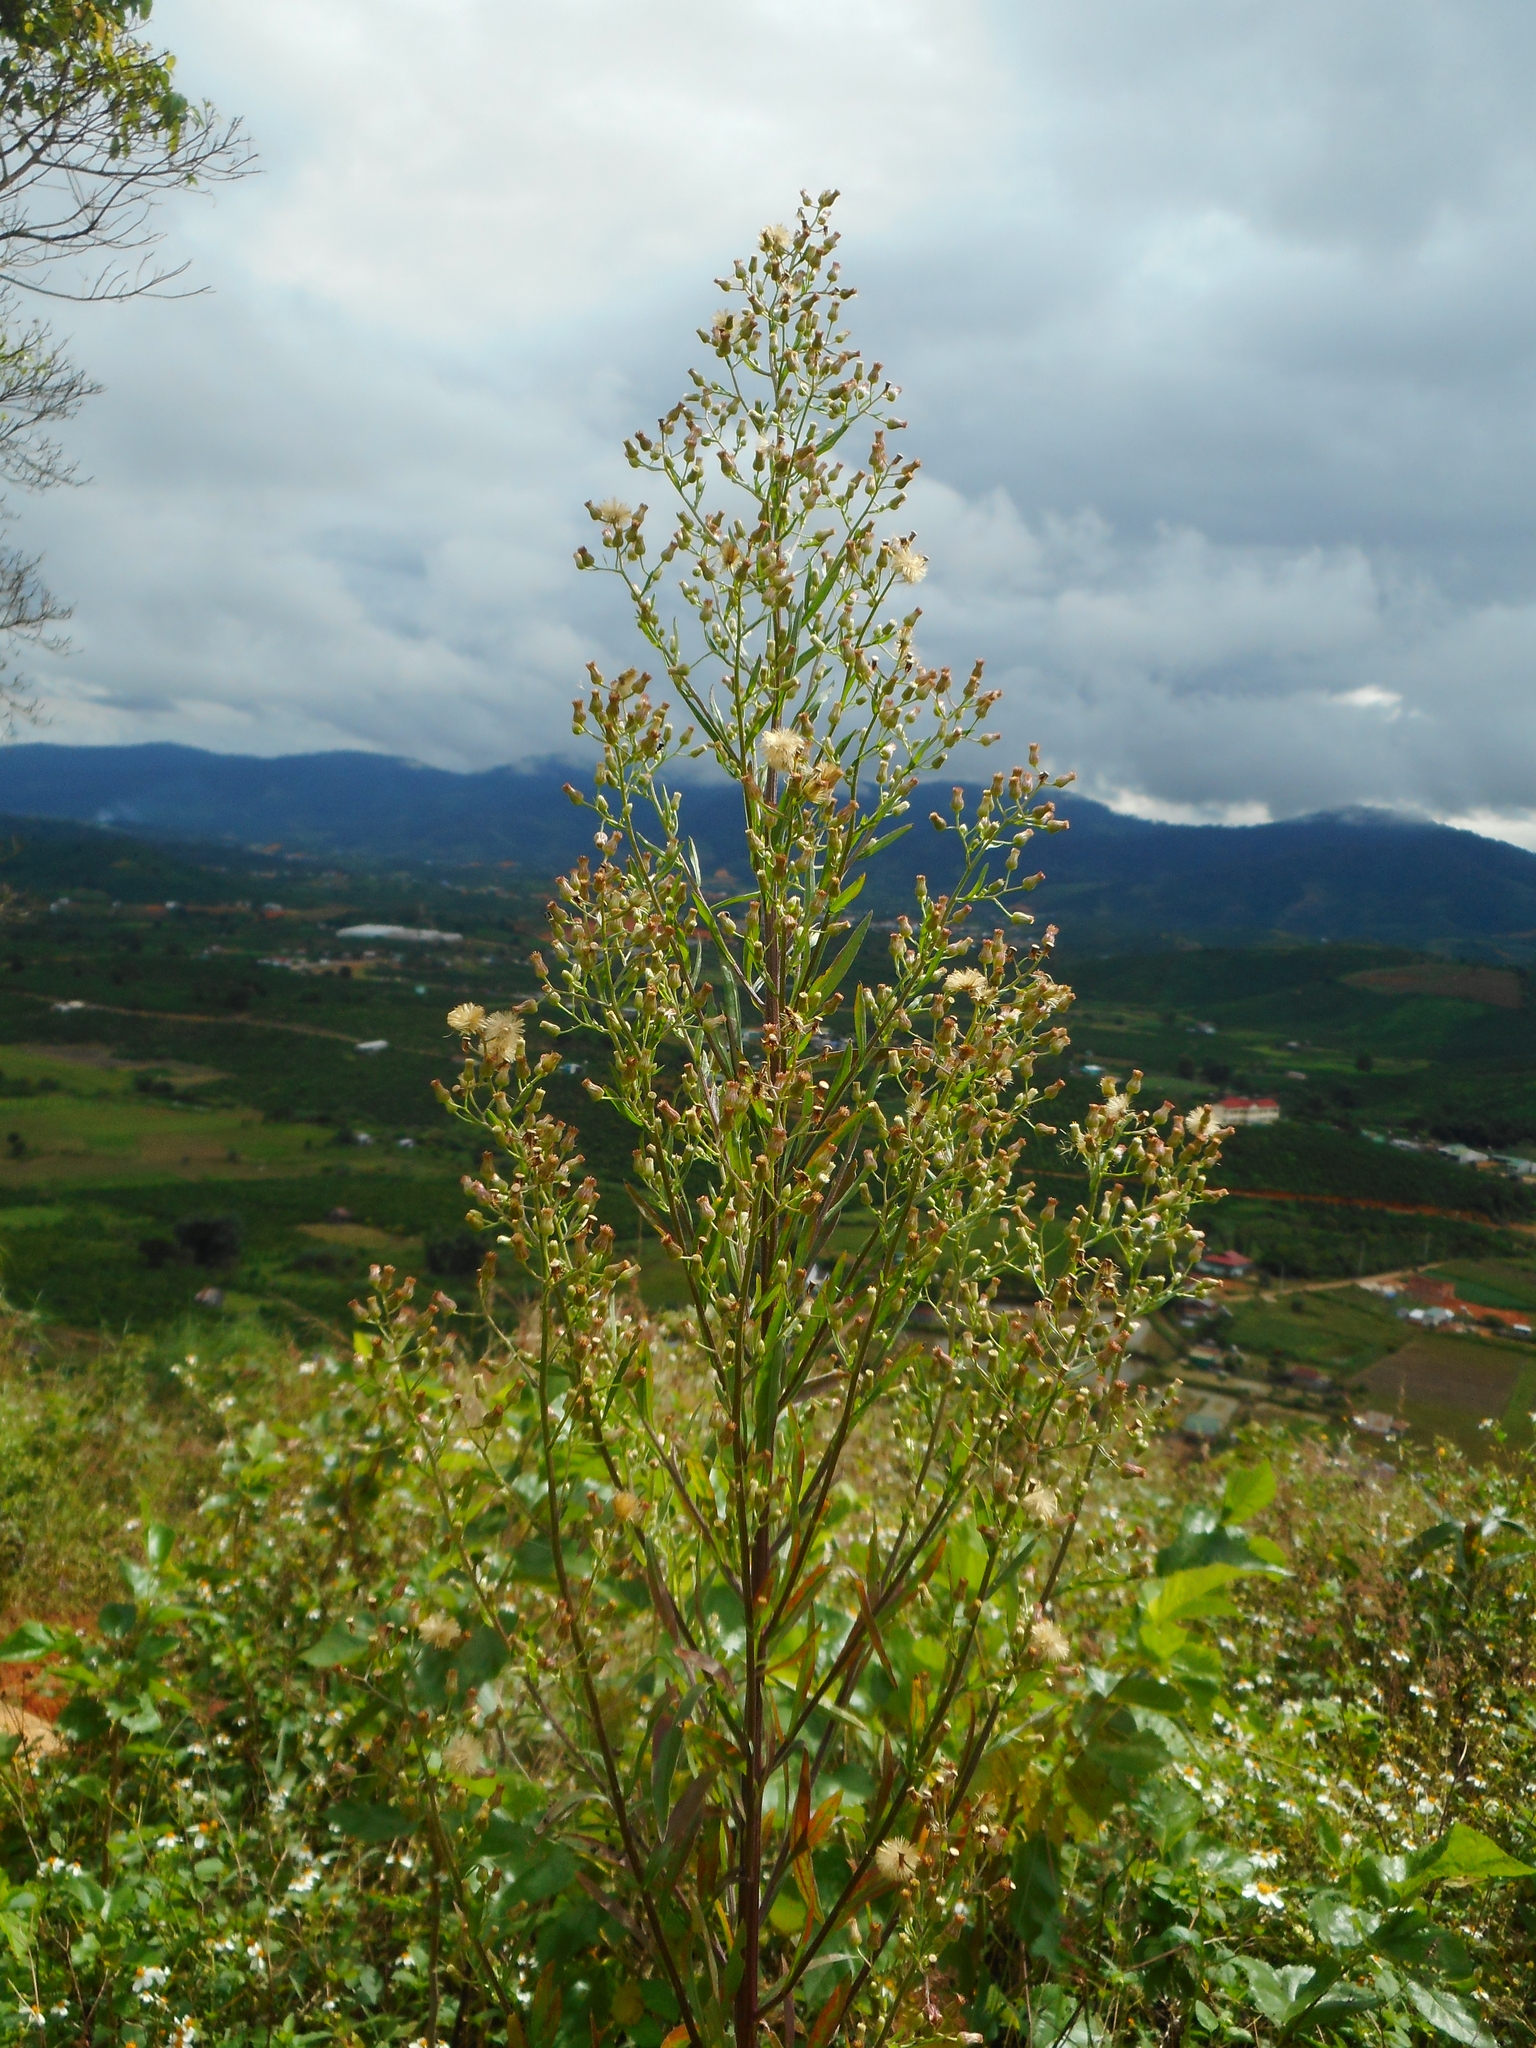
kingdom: Plantae
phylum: Tracheophyta
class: Magnoliopsida
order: Asterales
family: Asteraceae
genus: Erigeron
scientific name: Erigeron sumatrensis
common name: Daisy
